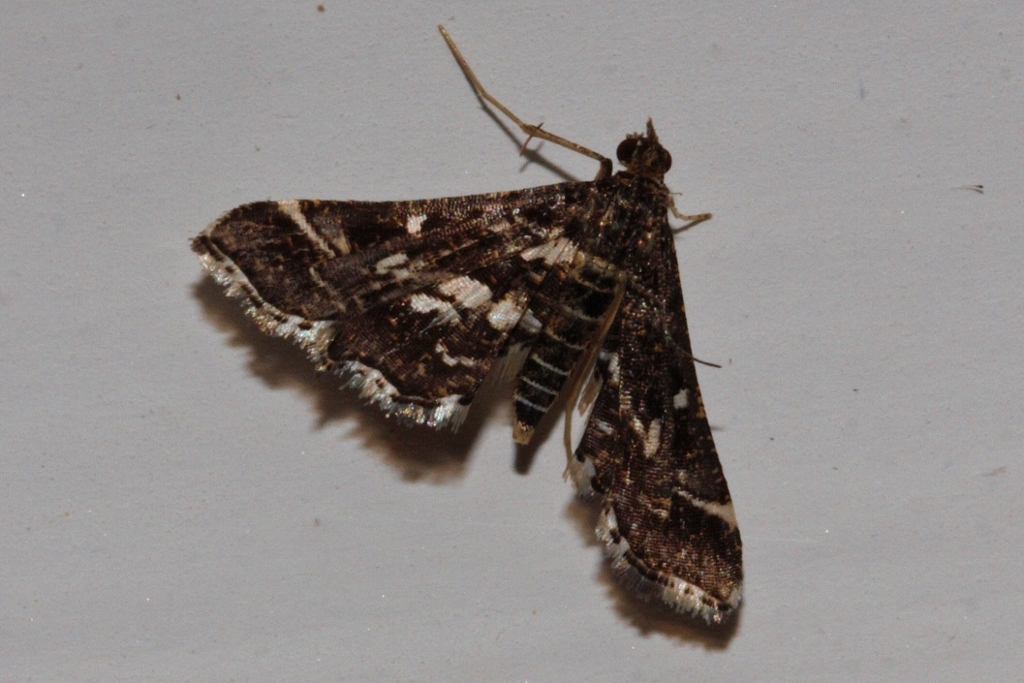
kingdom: Animalia
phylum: Arthropoda
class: Insecta
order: Lepidoptera
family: Crambidae
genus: Diasemiopsis
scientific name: Diasemiopsis ramburialis
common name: Vagrant china-mark
